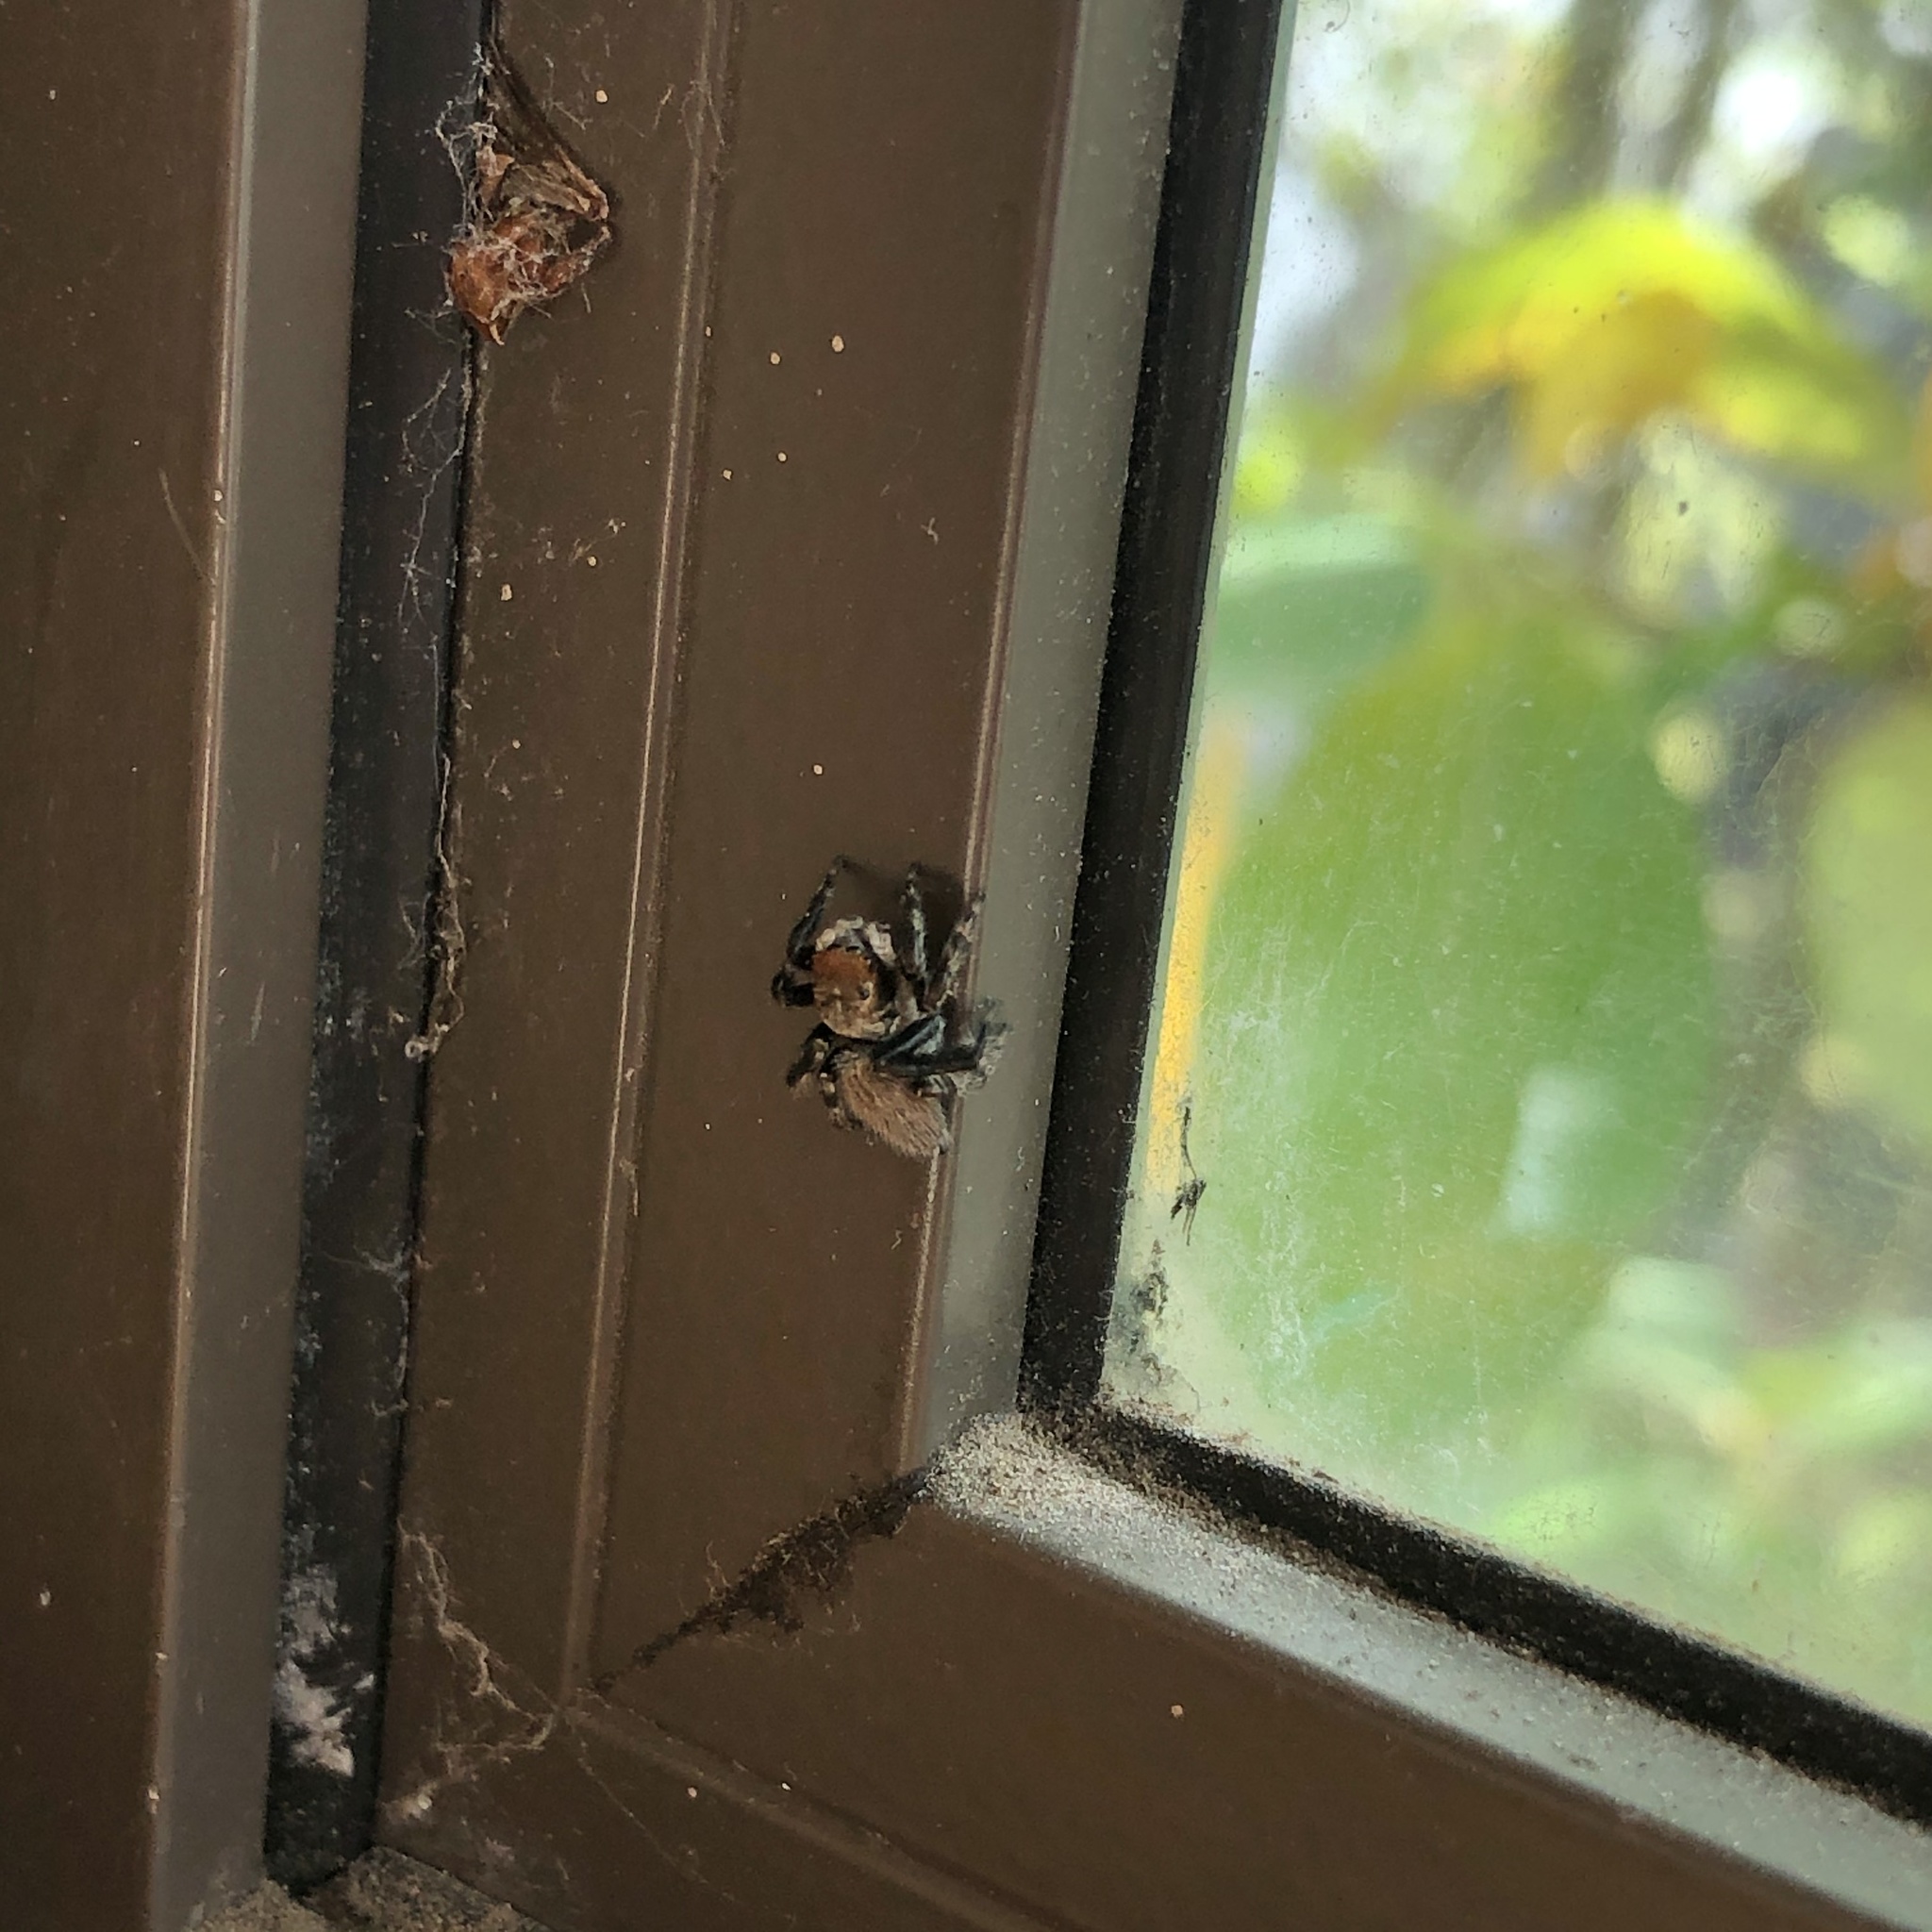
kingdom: Animalia
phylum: Arthropoda
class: Arachnida
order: Araneae
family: Salticidae
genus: Maratus
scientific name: Maratus griseus
